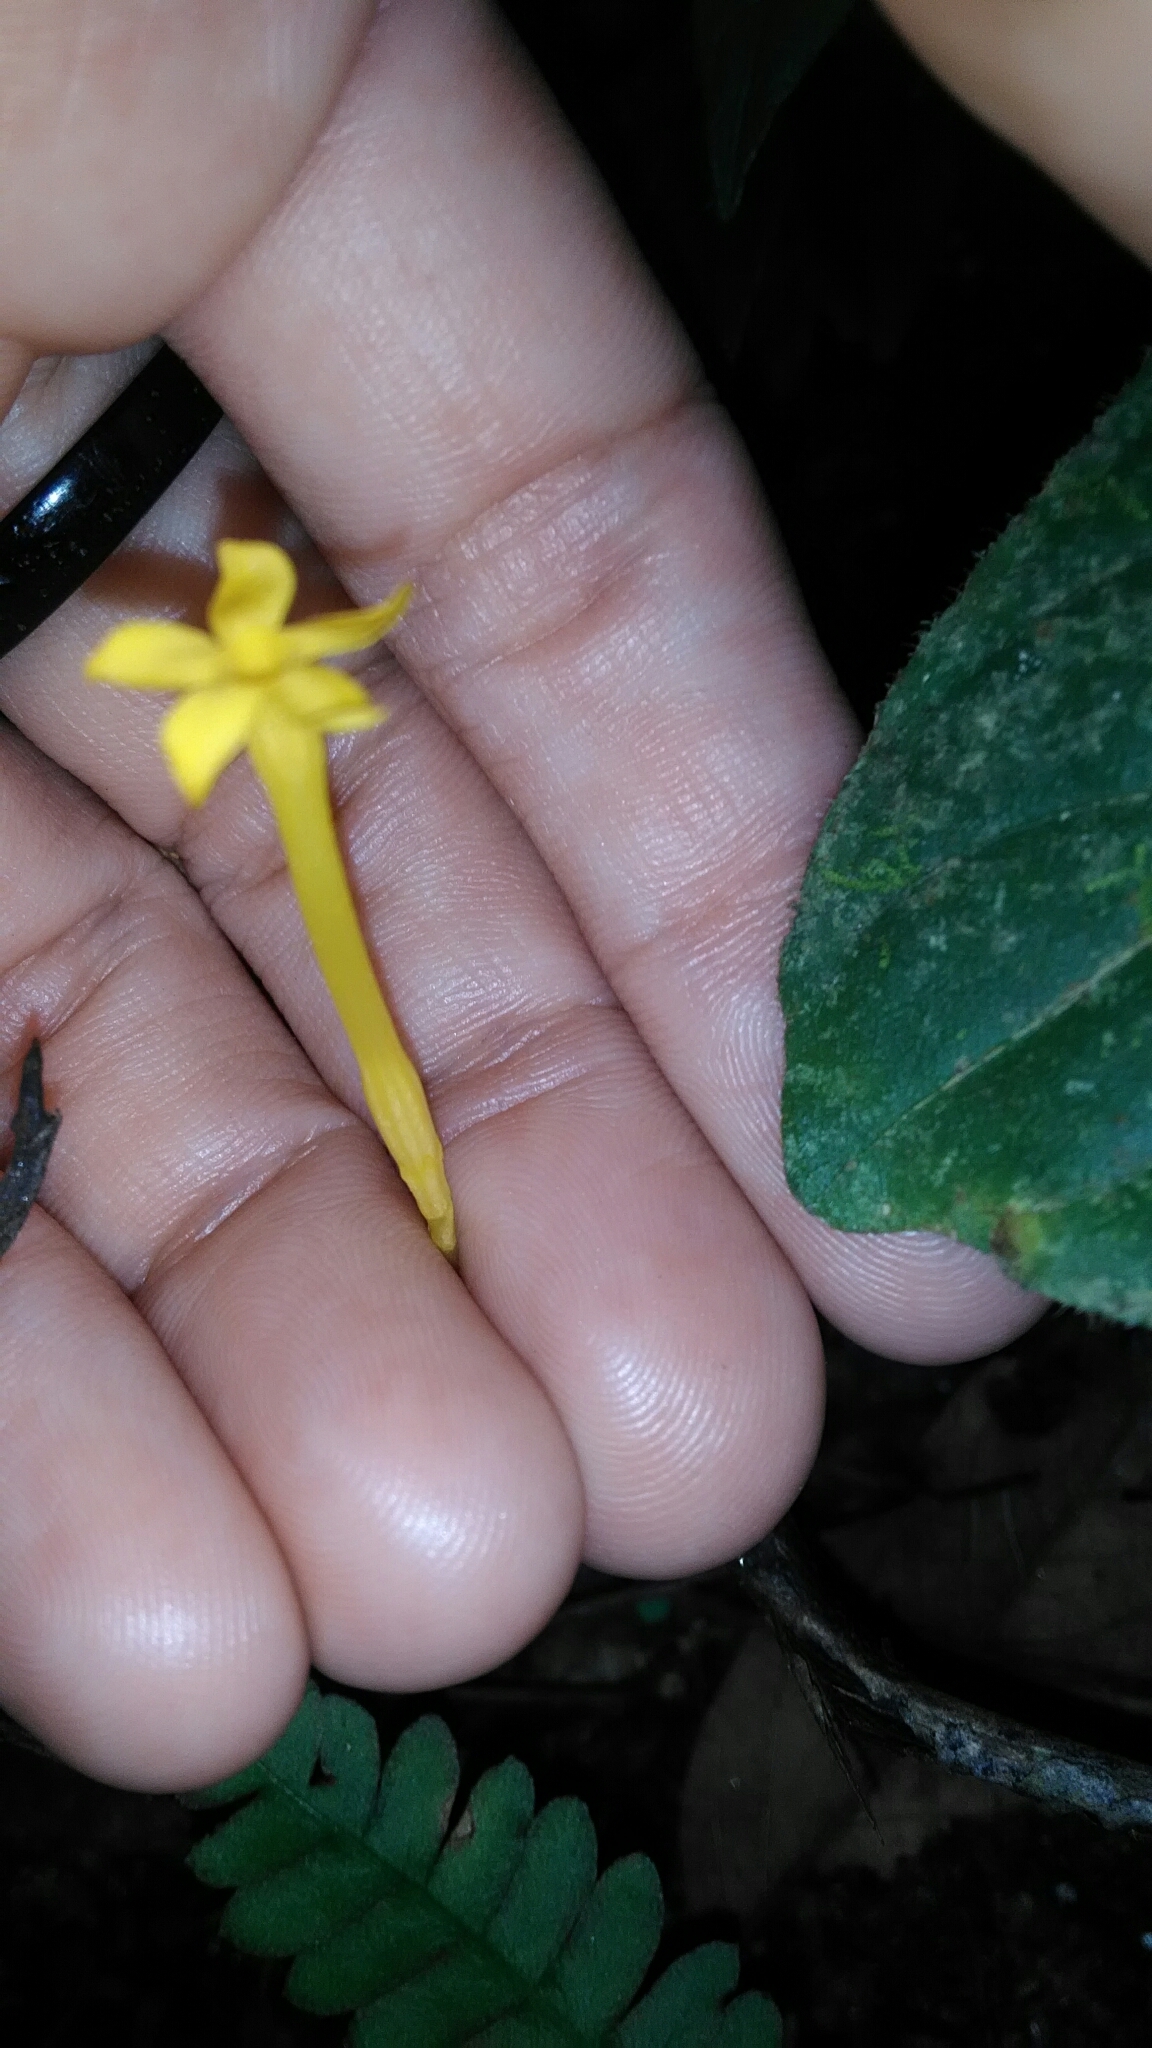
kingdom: Plantae
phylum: Tracheophyta
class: Magnoliopsida
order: Gentianales
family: Gentianaceae
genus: Voyria
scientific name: Voyria aphylla
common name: Leafless ghost plant
